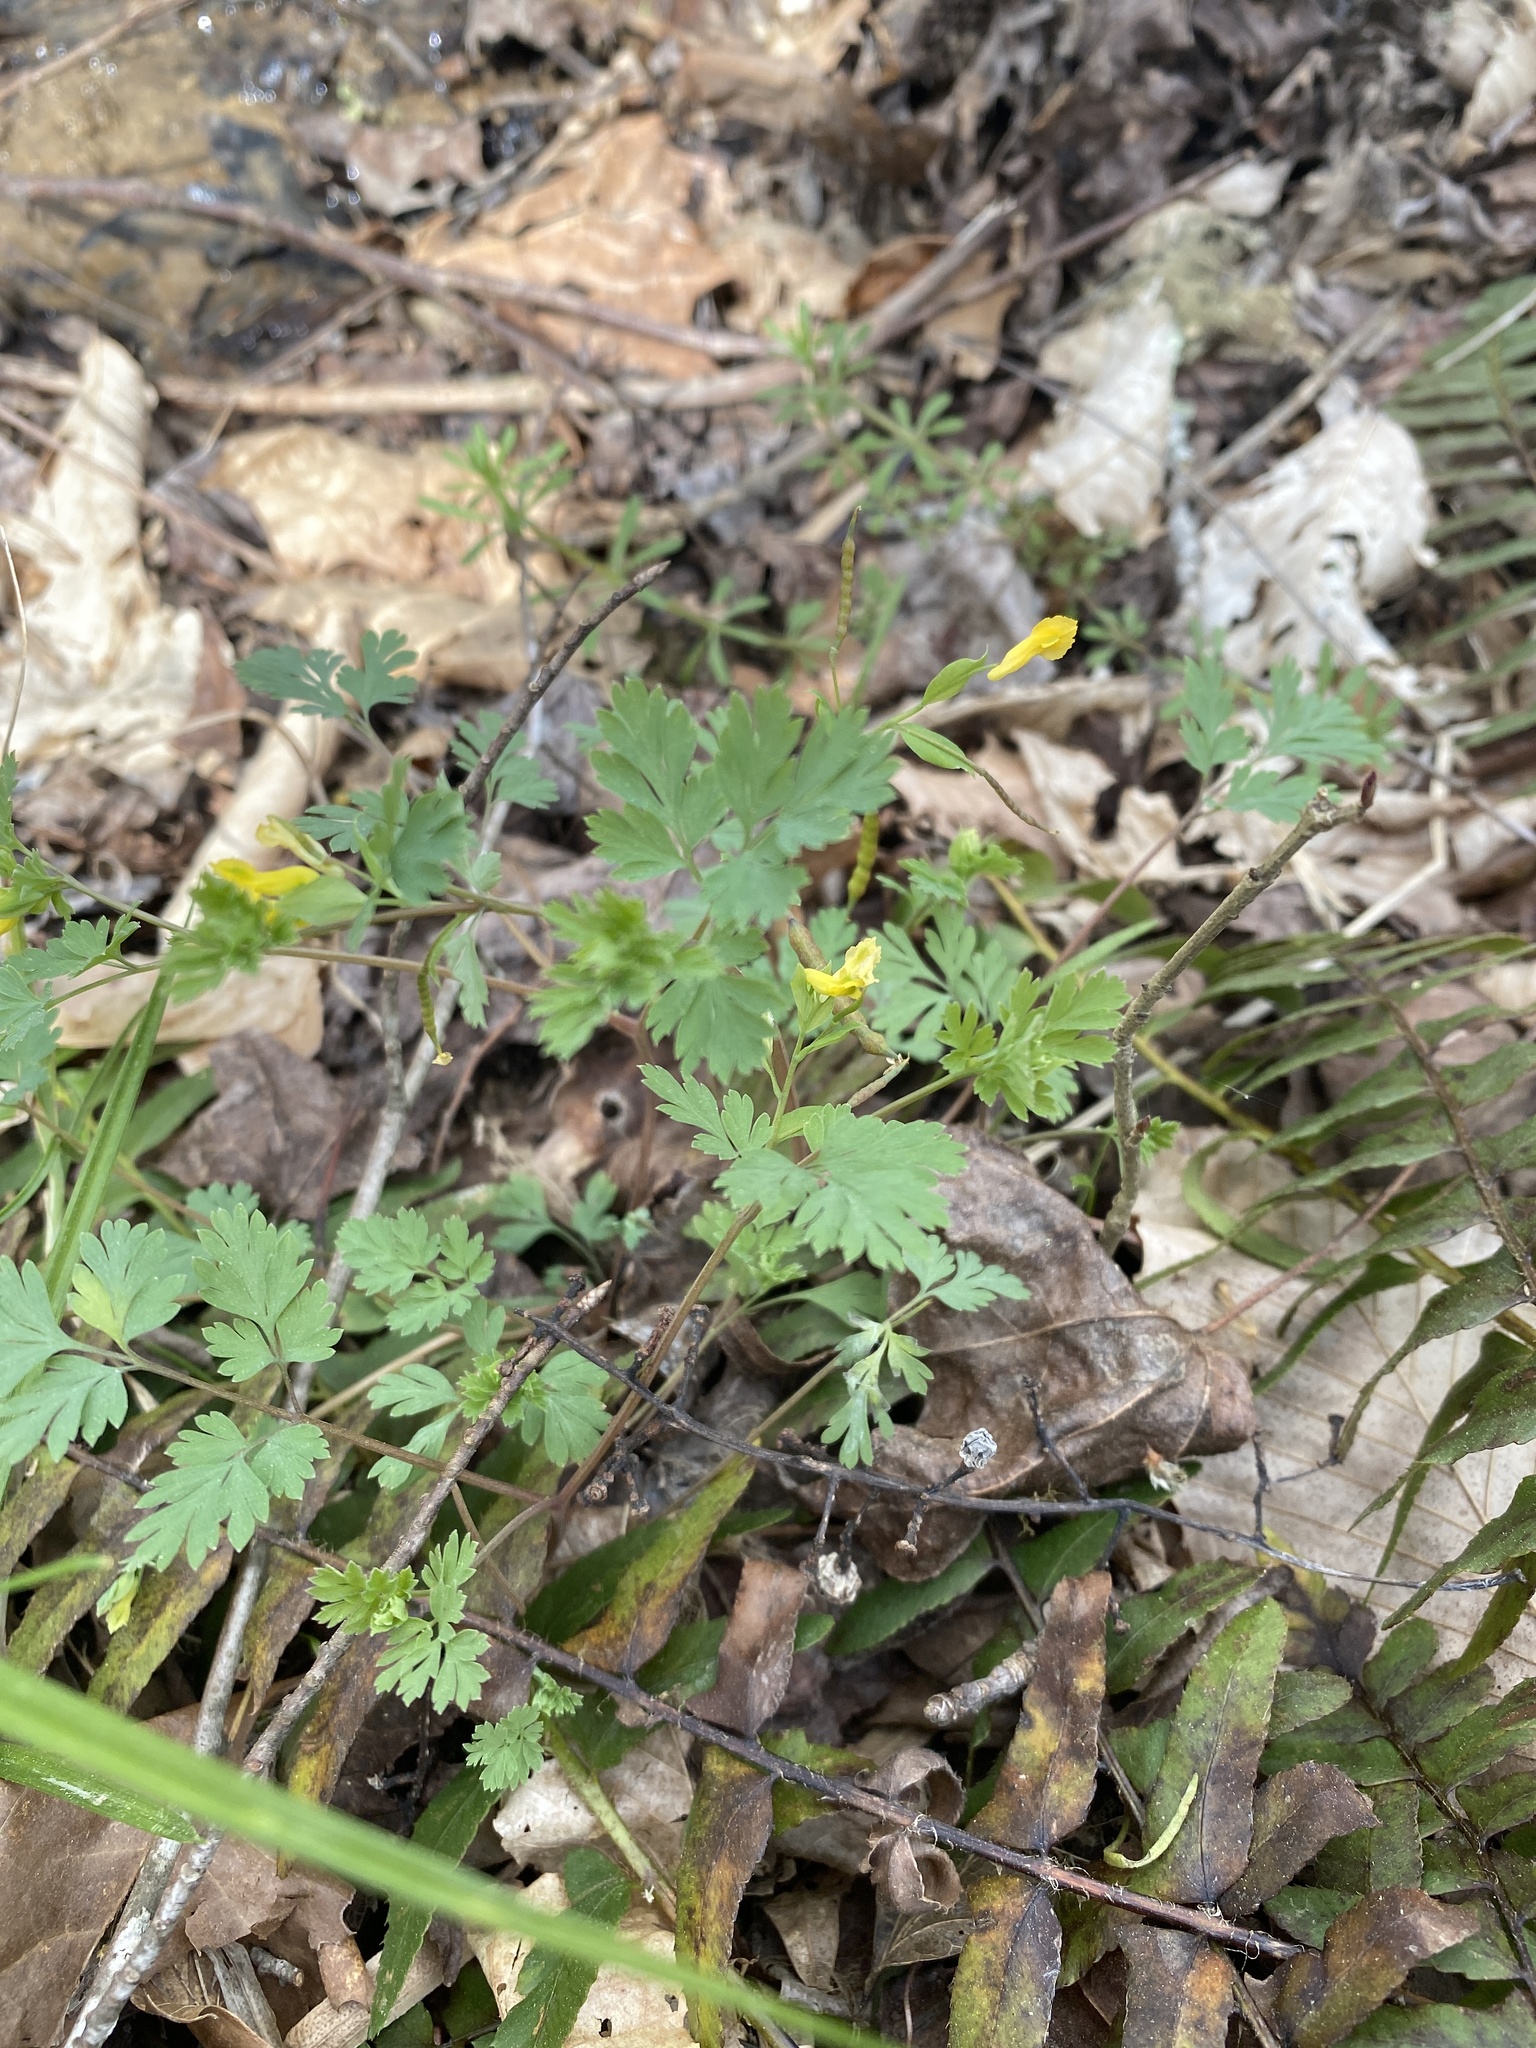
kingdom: Plantae
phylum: Tracheophyta
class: Magnoliopsida
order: Ranunculales
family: Papaveraceae
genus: Corydalis
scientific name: Corydalis flavula
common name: Yellow corydalis
